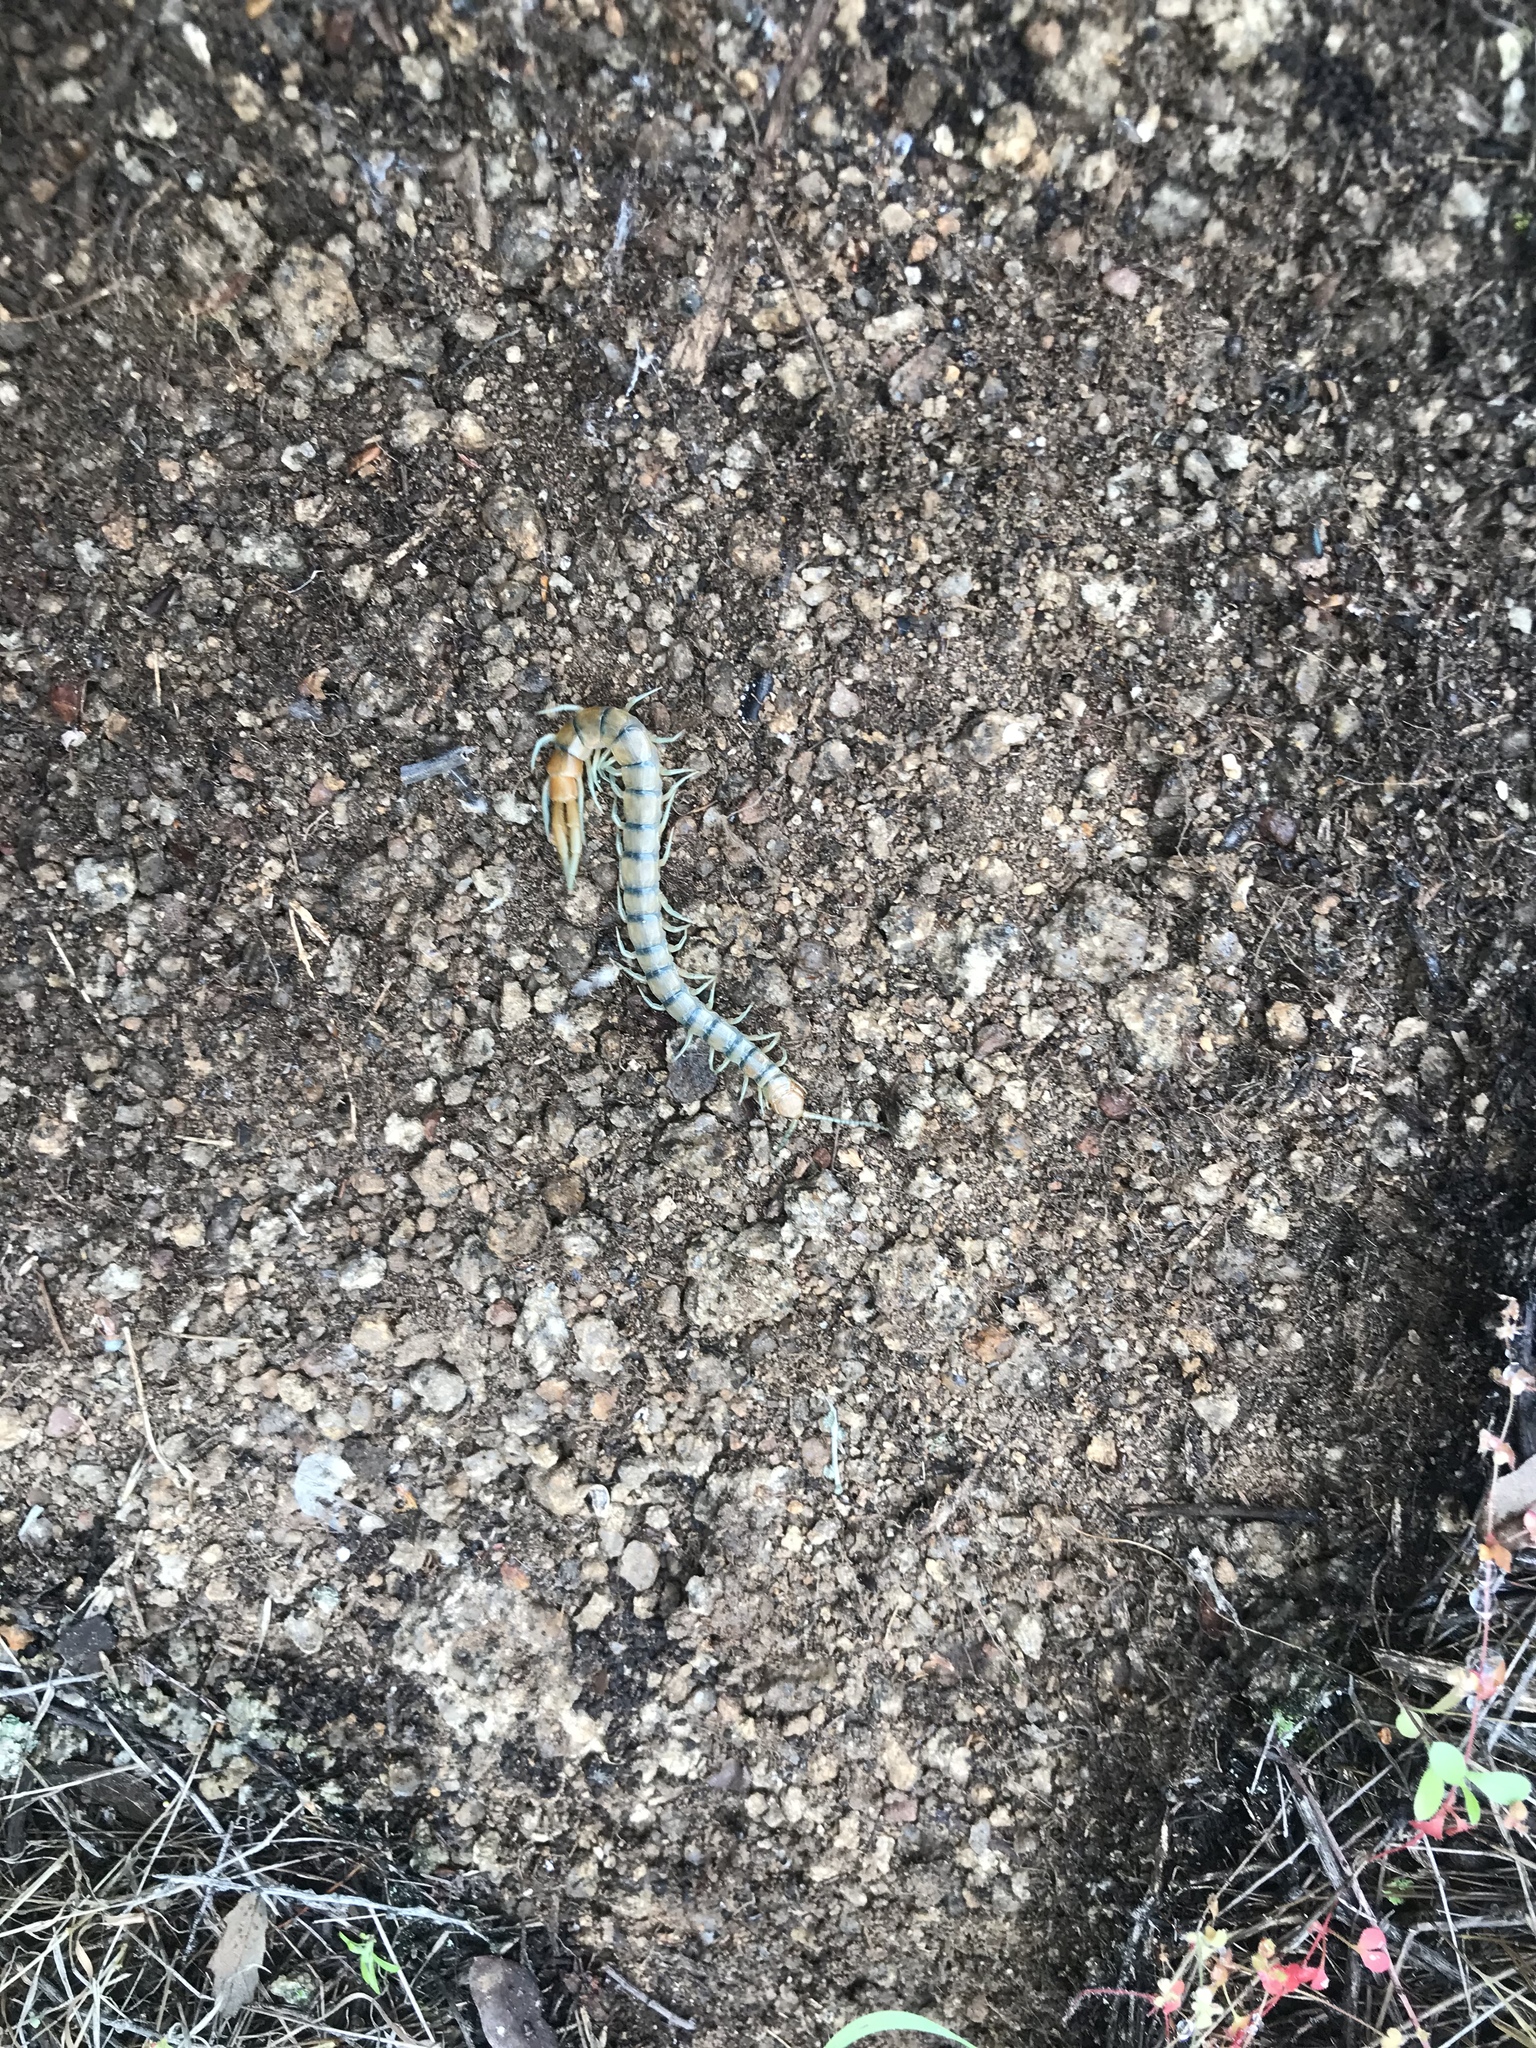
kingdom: Animalia
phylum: Arthropoda
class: Chilopoda
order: Scolopendromorpha
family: Scolopendridae
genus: Scolopendra
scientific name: Scolopendra polymorpha
